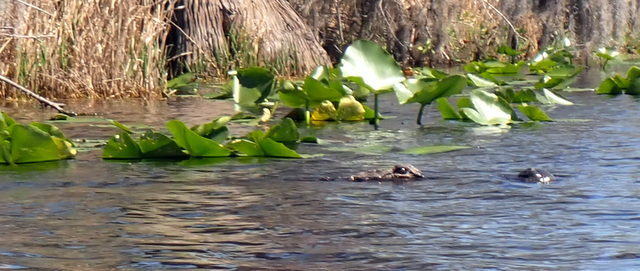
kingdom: Animalia
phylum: Chordata
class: Crocodylia
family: Alligatoridae
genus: Alligator
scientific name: Alligator mississippiensis
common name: American alligator
